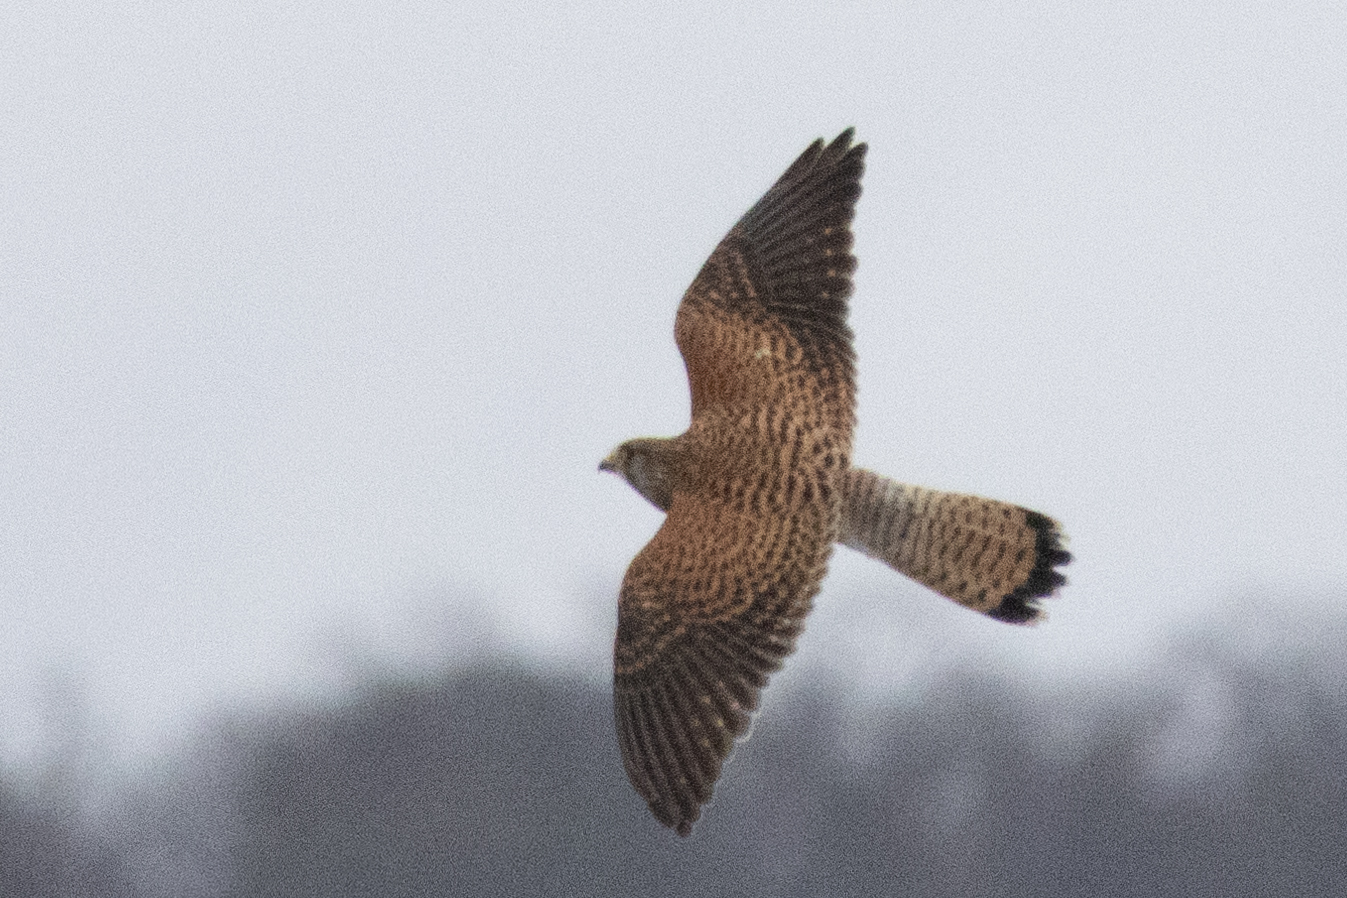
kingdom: Animalia
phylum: Chordata
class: Aves
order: Falconiformes
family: Falconidae
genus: Falco
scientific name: Falco tinnunculus
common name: Common kestrel
